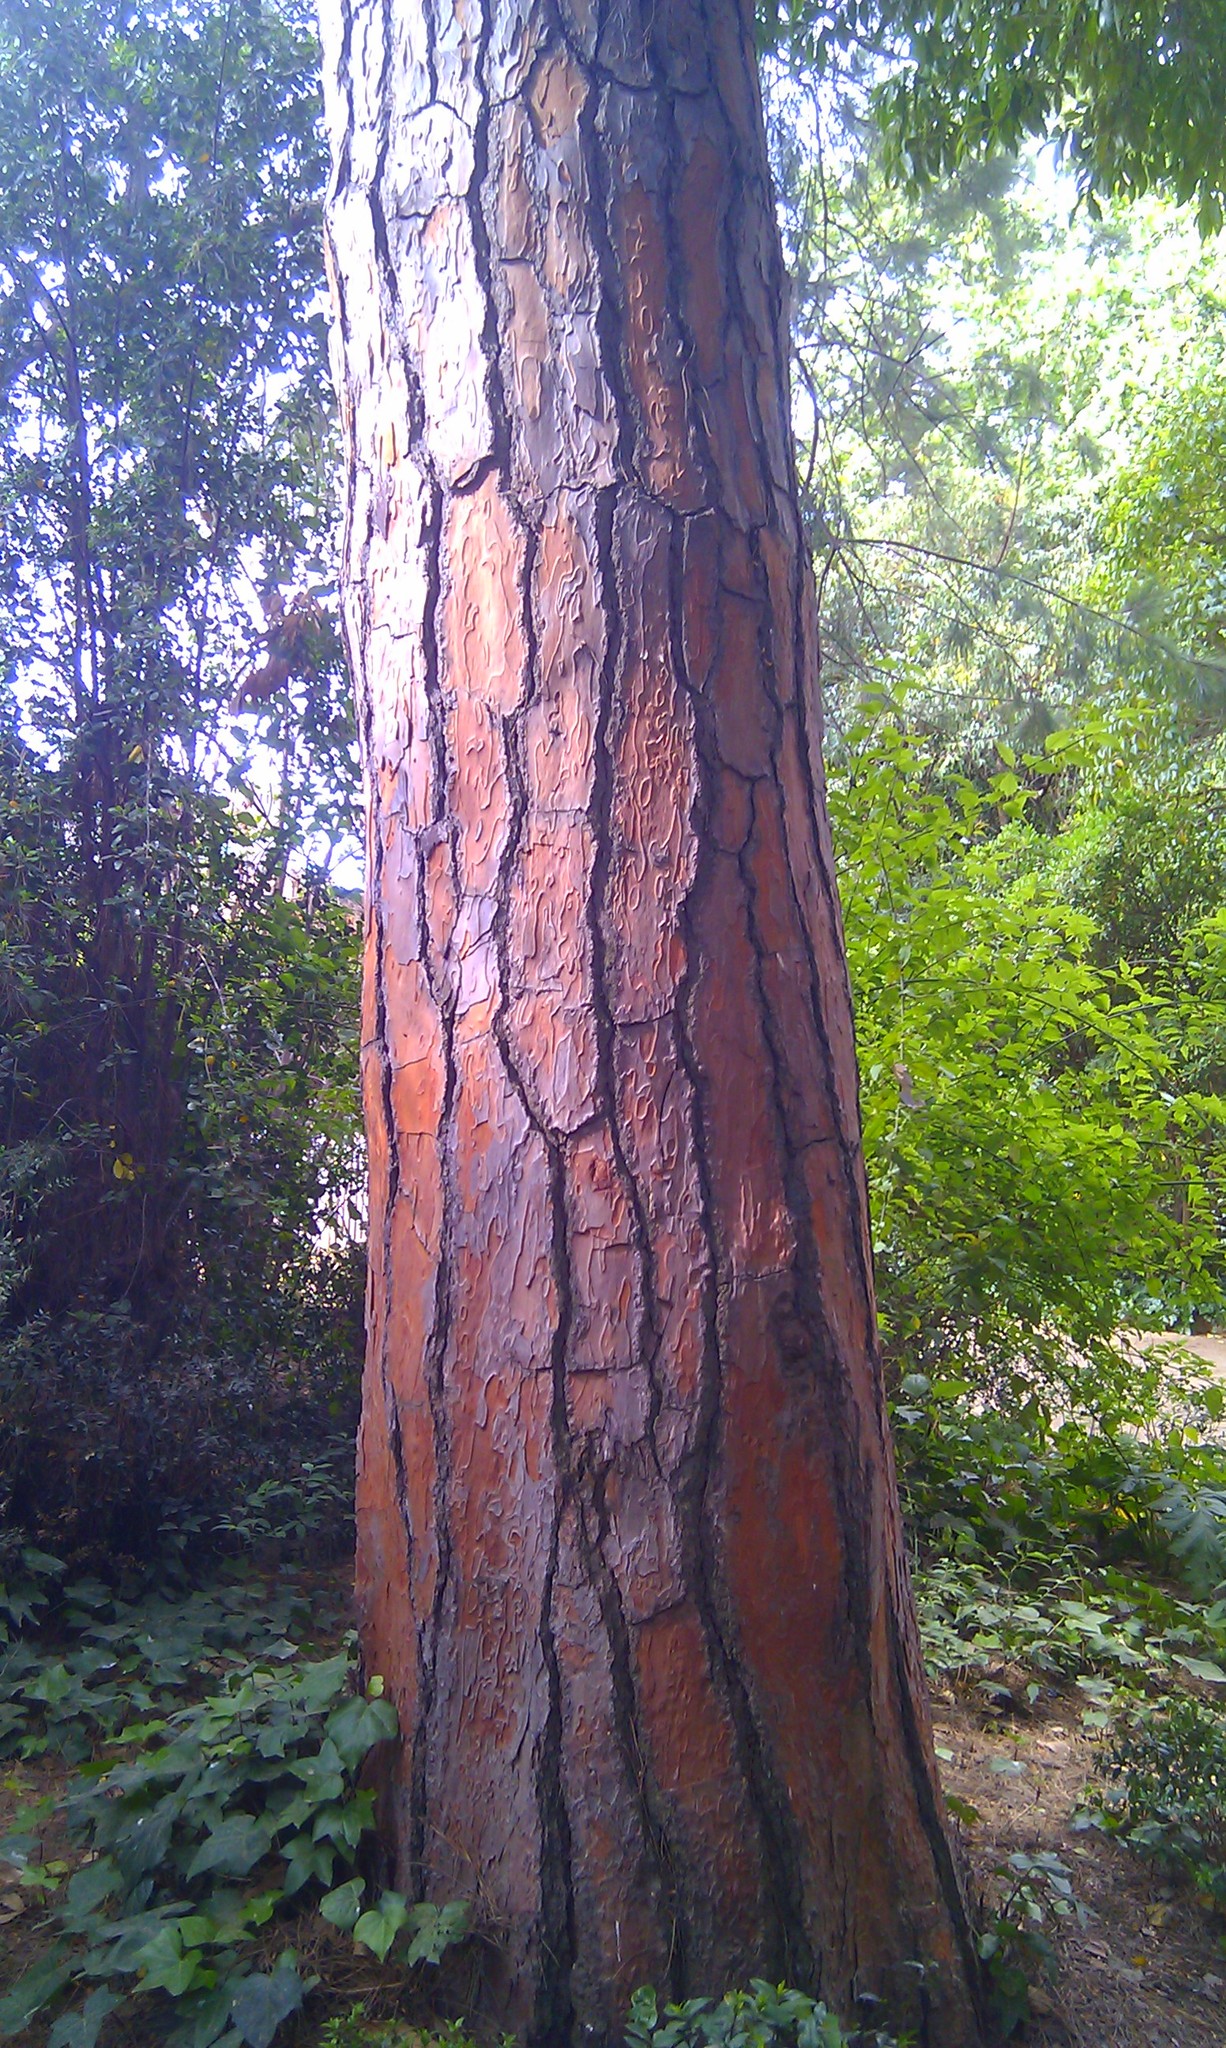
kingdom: Plantae
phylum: Tracheophyta
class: Pinopsida
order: Pinales
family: Pinaceae
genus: Pinus
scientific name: Pinus pinea
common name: Italian stone pine
